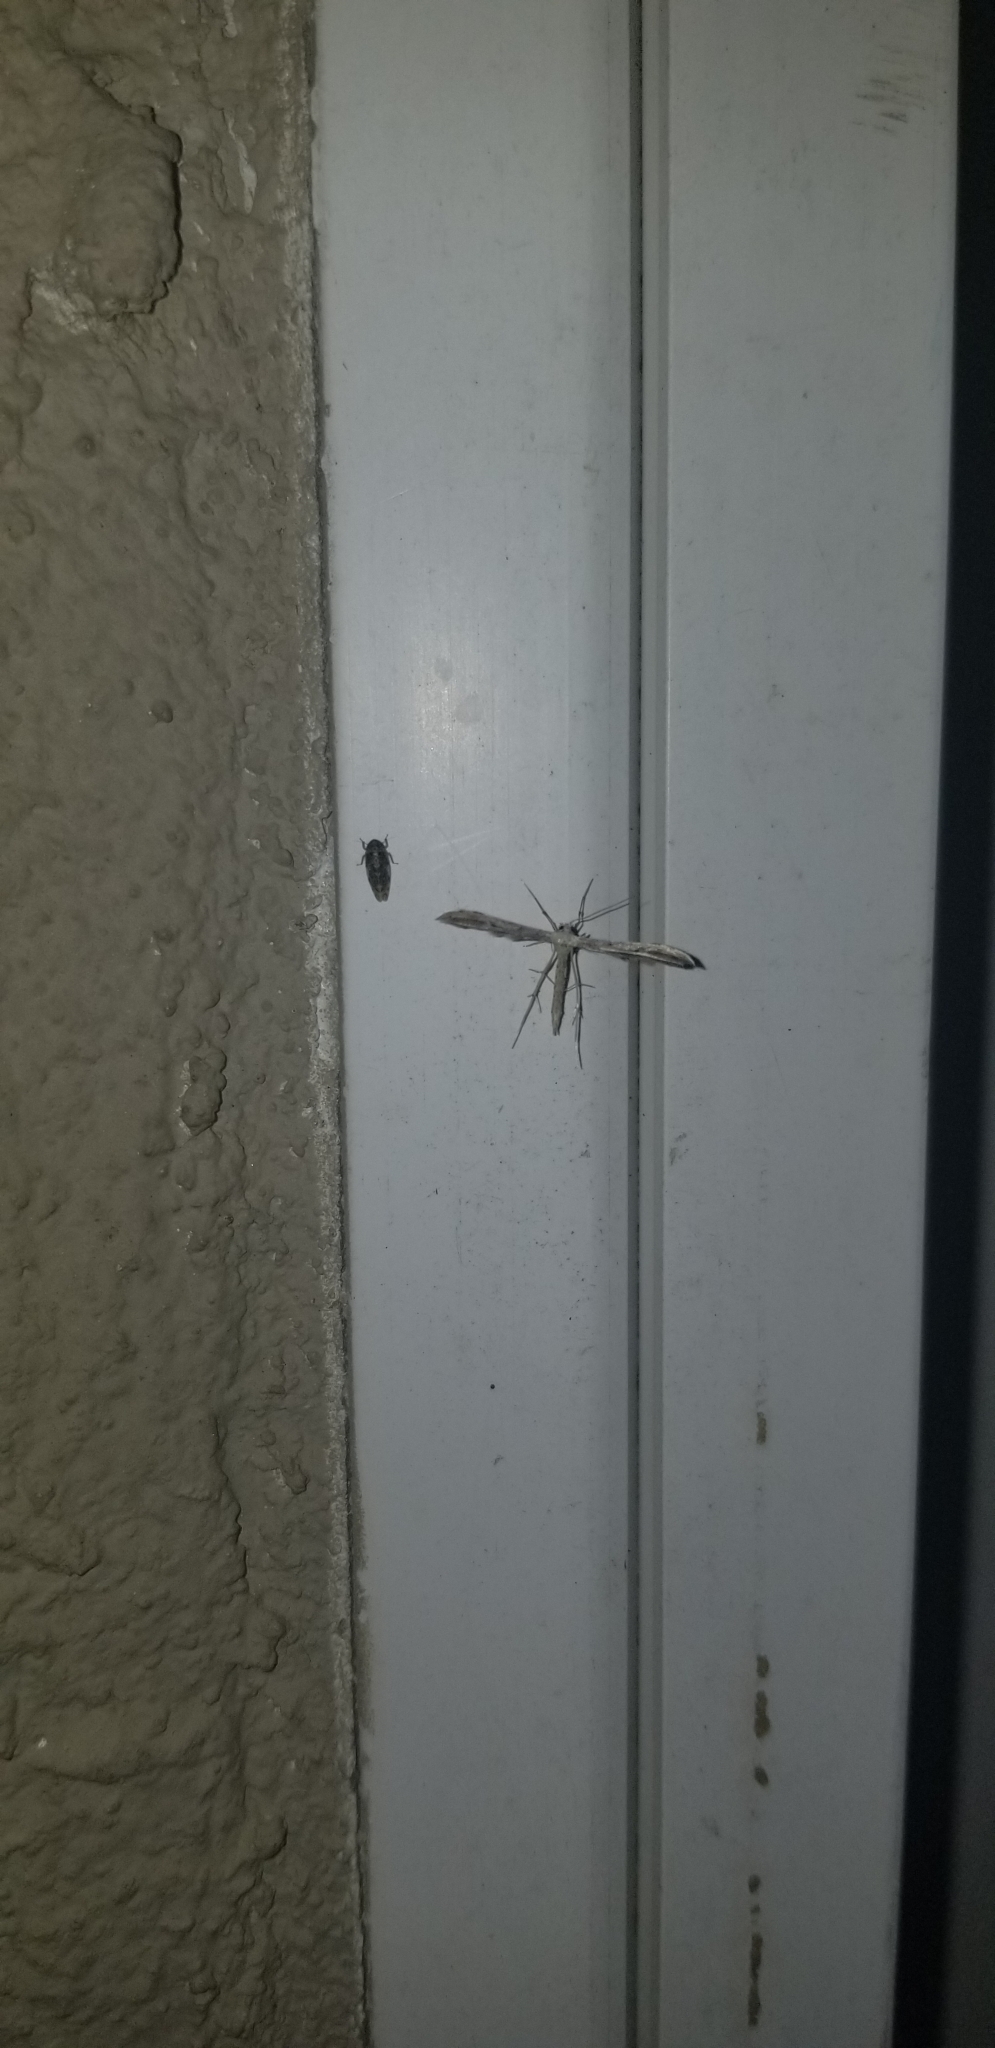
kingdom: Animalia
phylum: Arthropoda
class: Insecta
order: Lepidoptera
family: Pterophoridae
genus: Pselnophorus
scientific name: Pselnophorus belfragei
